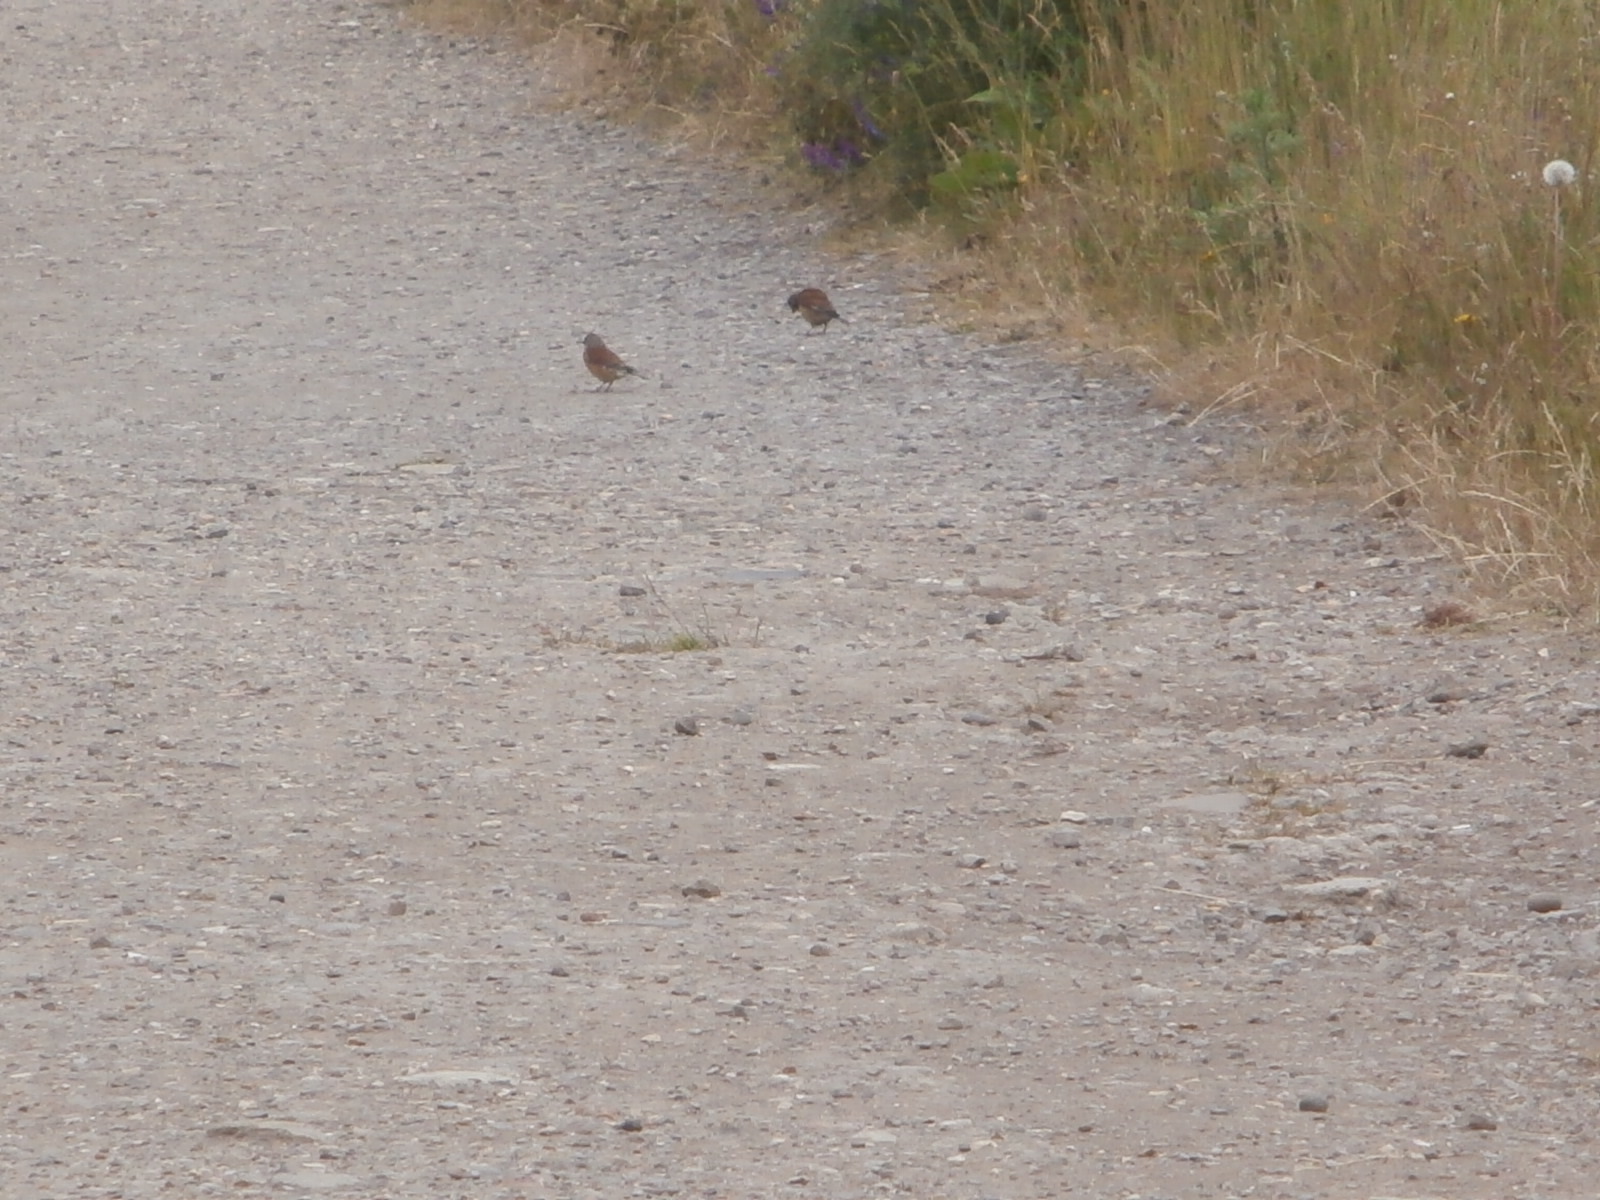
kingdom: Animalia
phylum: Chordata
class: Aves
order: Passeriformes
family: Fringillidae
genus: Linaria
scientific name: Linaria cannabina
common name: Common linnet
